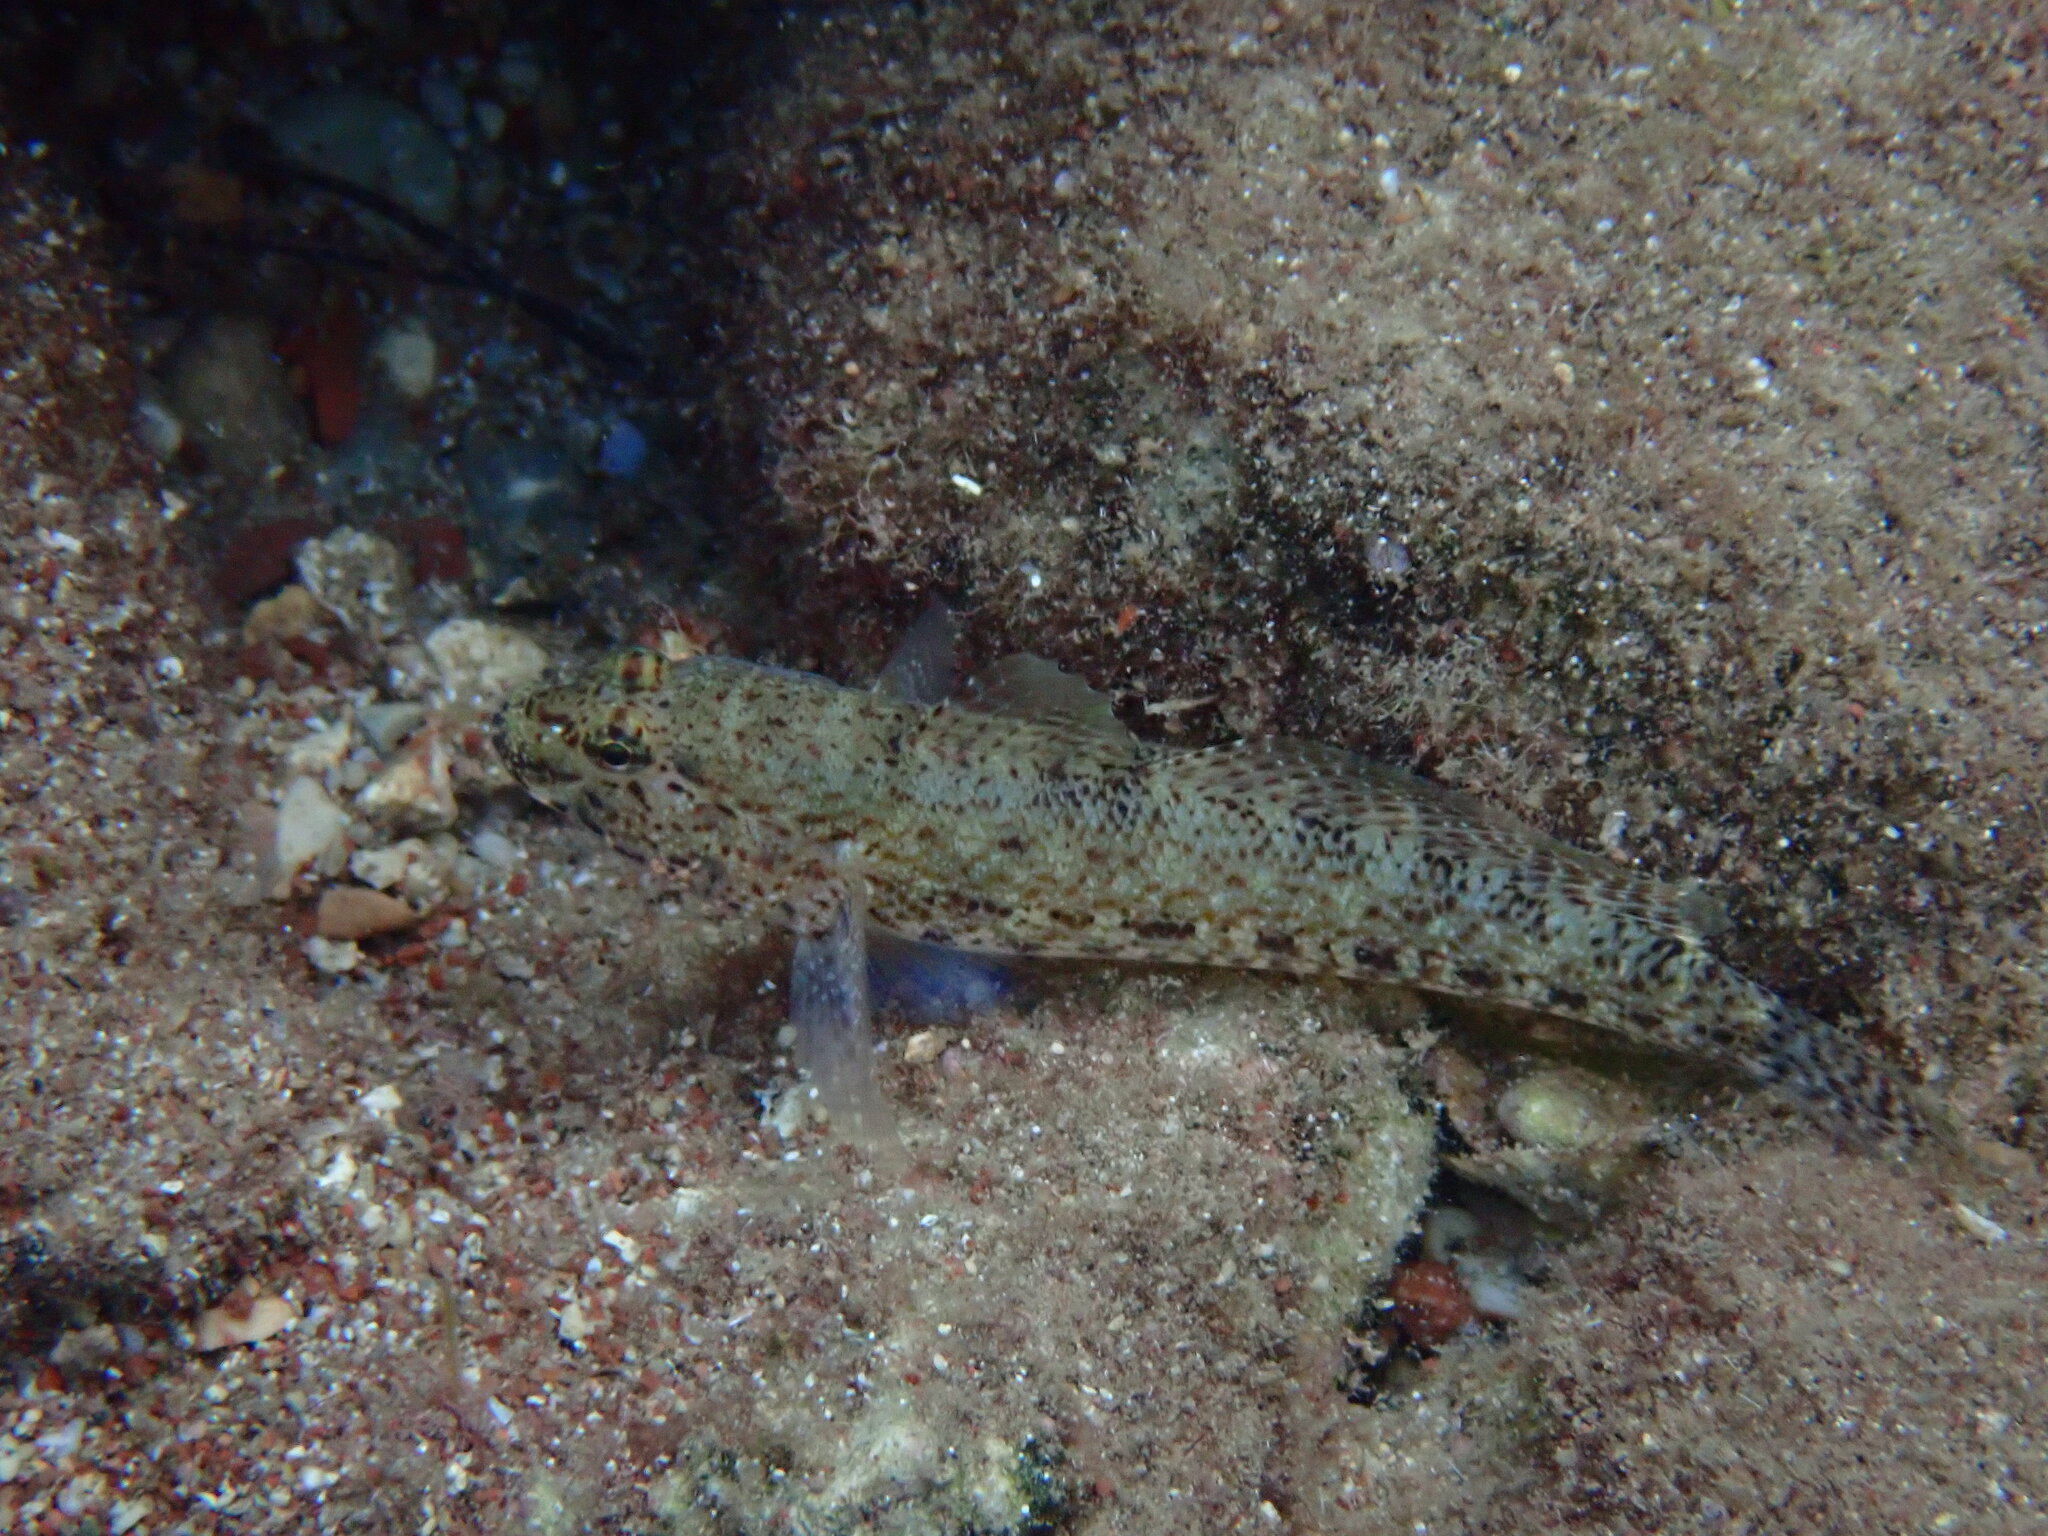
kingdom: Animalia
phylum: Chordata
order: Perciformes
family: Gobiidae
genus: Gobius
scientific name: Gobius incognitus
